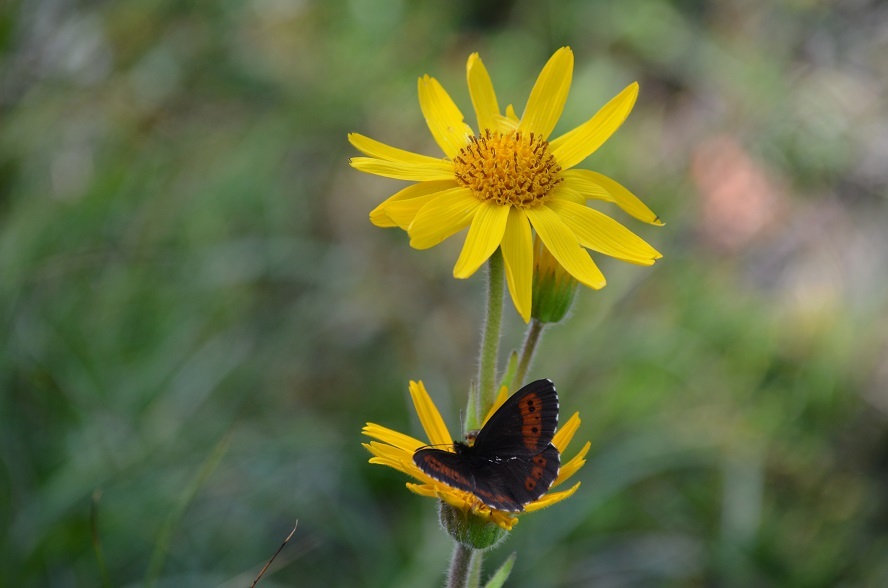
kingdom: Animalia
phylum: Arthropoda
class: Insecta
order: Lepidoptera
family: Nymphalidae
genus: Erebia
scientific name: Erebia euryale
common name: Large ringlet
